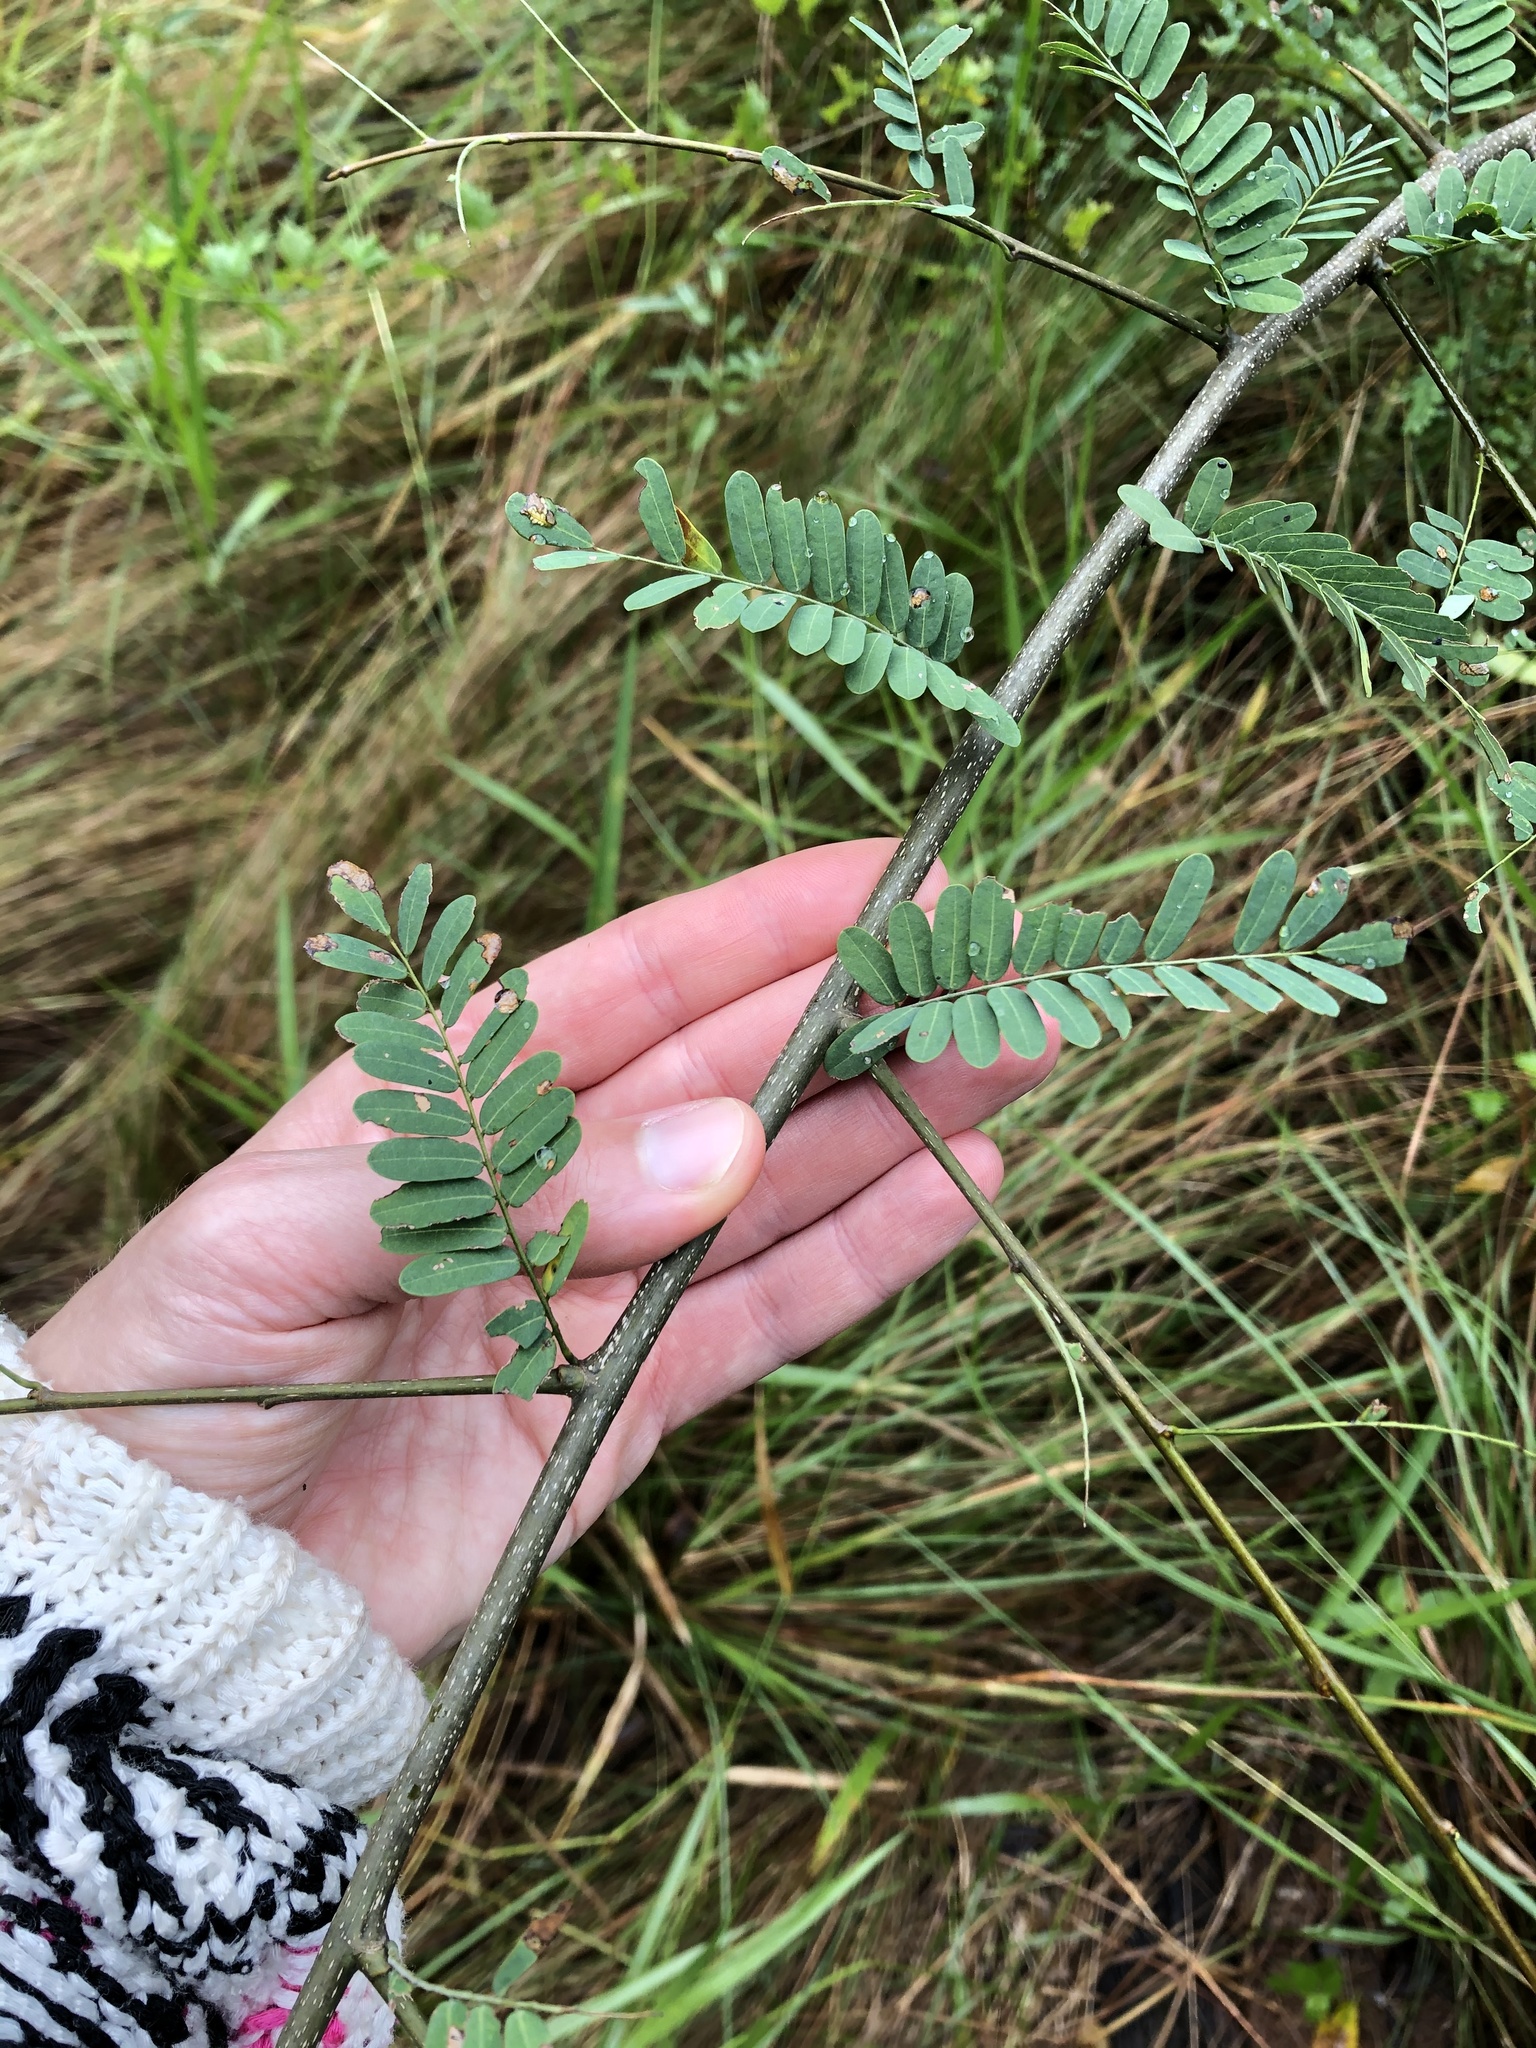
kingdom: Plantae
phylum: Tracheophyta
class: Magnoliopsida
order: Fabales
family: Fabaceae
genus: Dalbergia
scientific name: Dalbergia armata
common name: Hluhluwe climber
